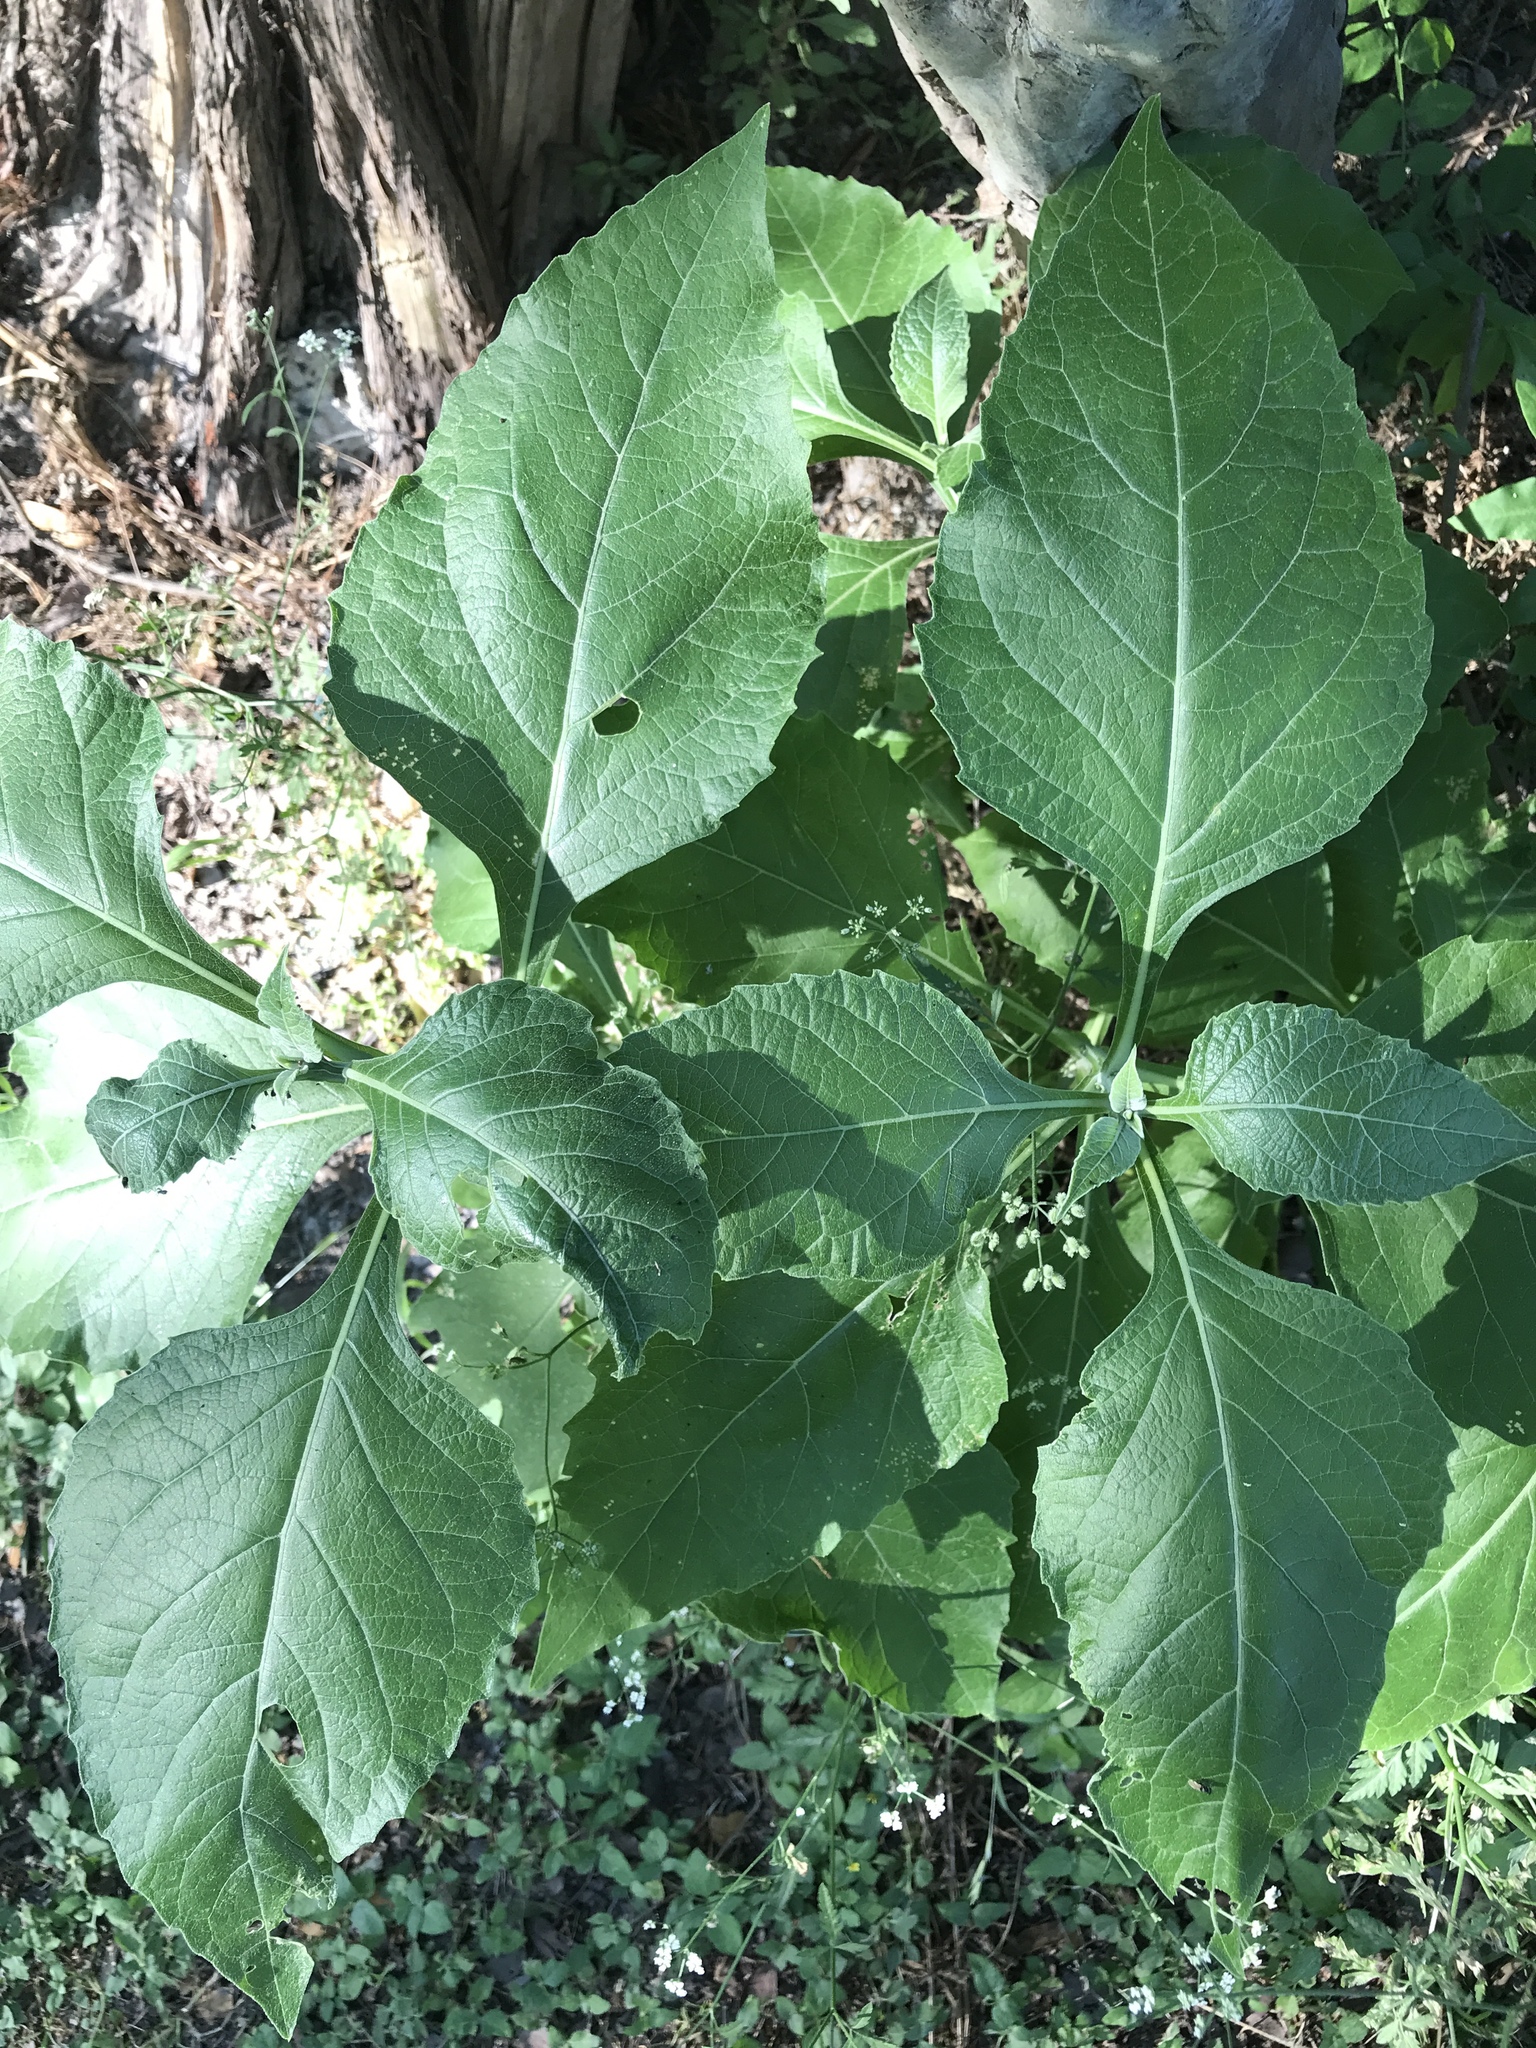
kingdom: Plantae
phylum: Tracheophyta
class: Magnoliopsida
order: Asterales
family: Asteraceae
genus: Verbesina
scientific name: Verbesina virginica
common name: Frostweed
